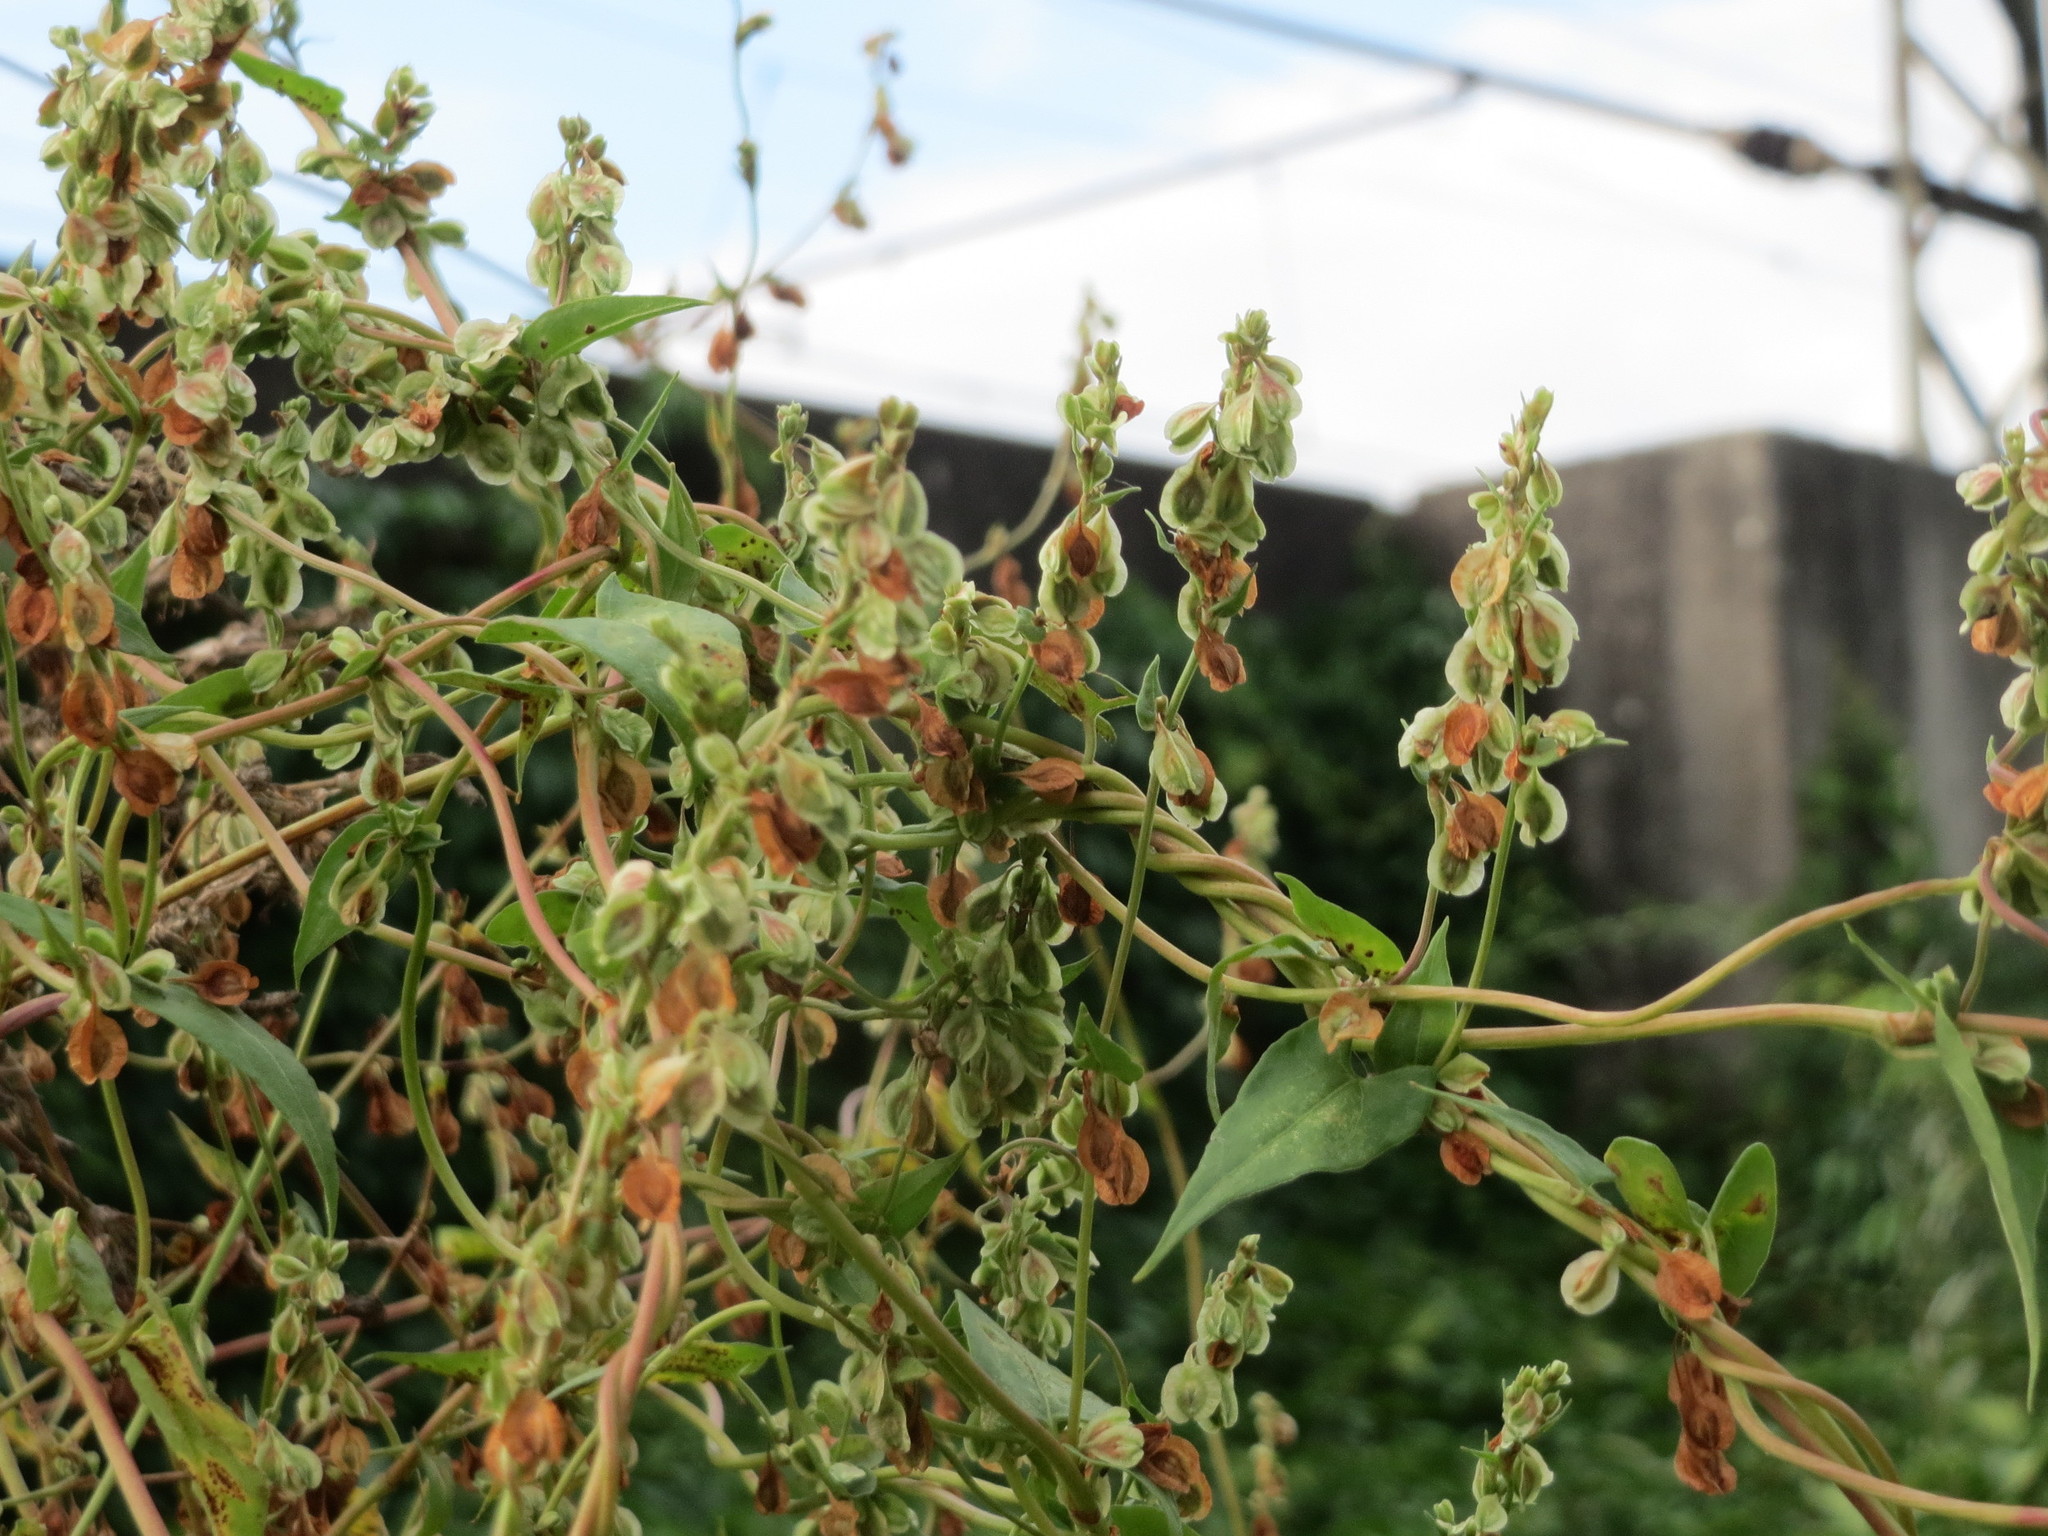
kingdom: Plantae
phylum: Tracheophyta
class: Magnoliopsida
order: Caryophyllales
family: Polygonaceae
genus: Fallopia
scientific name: Fallopia dumetorum
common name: Copse-bindweed
